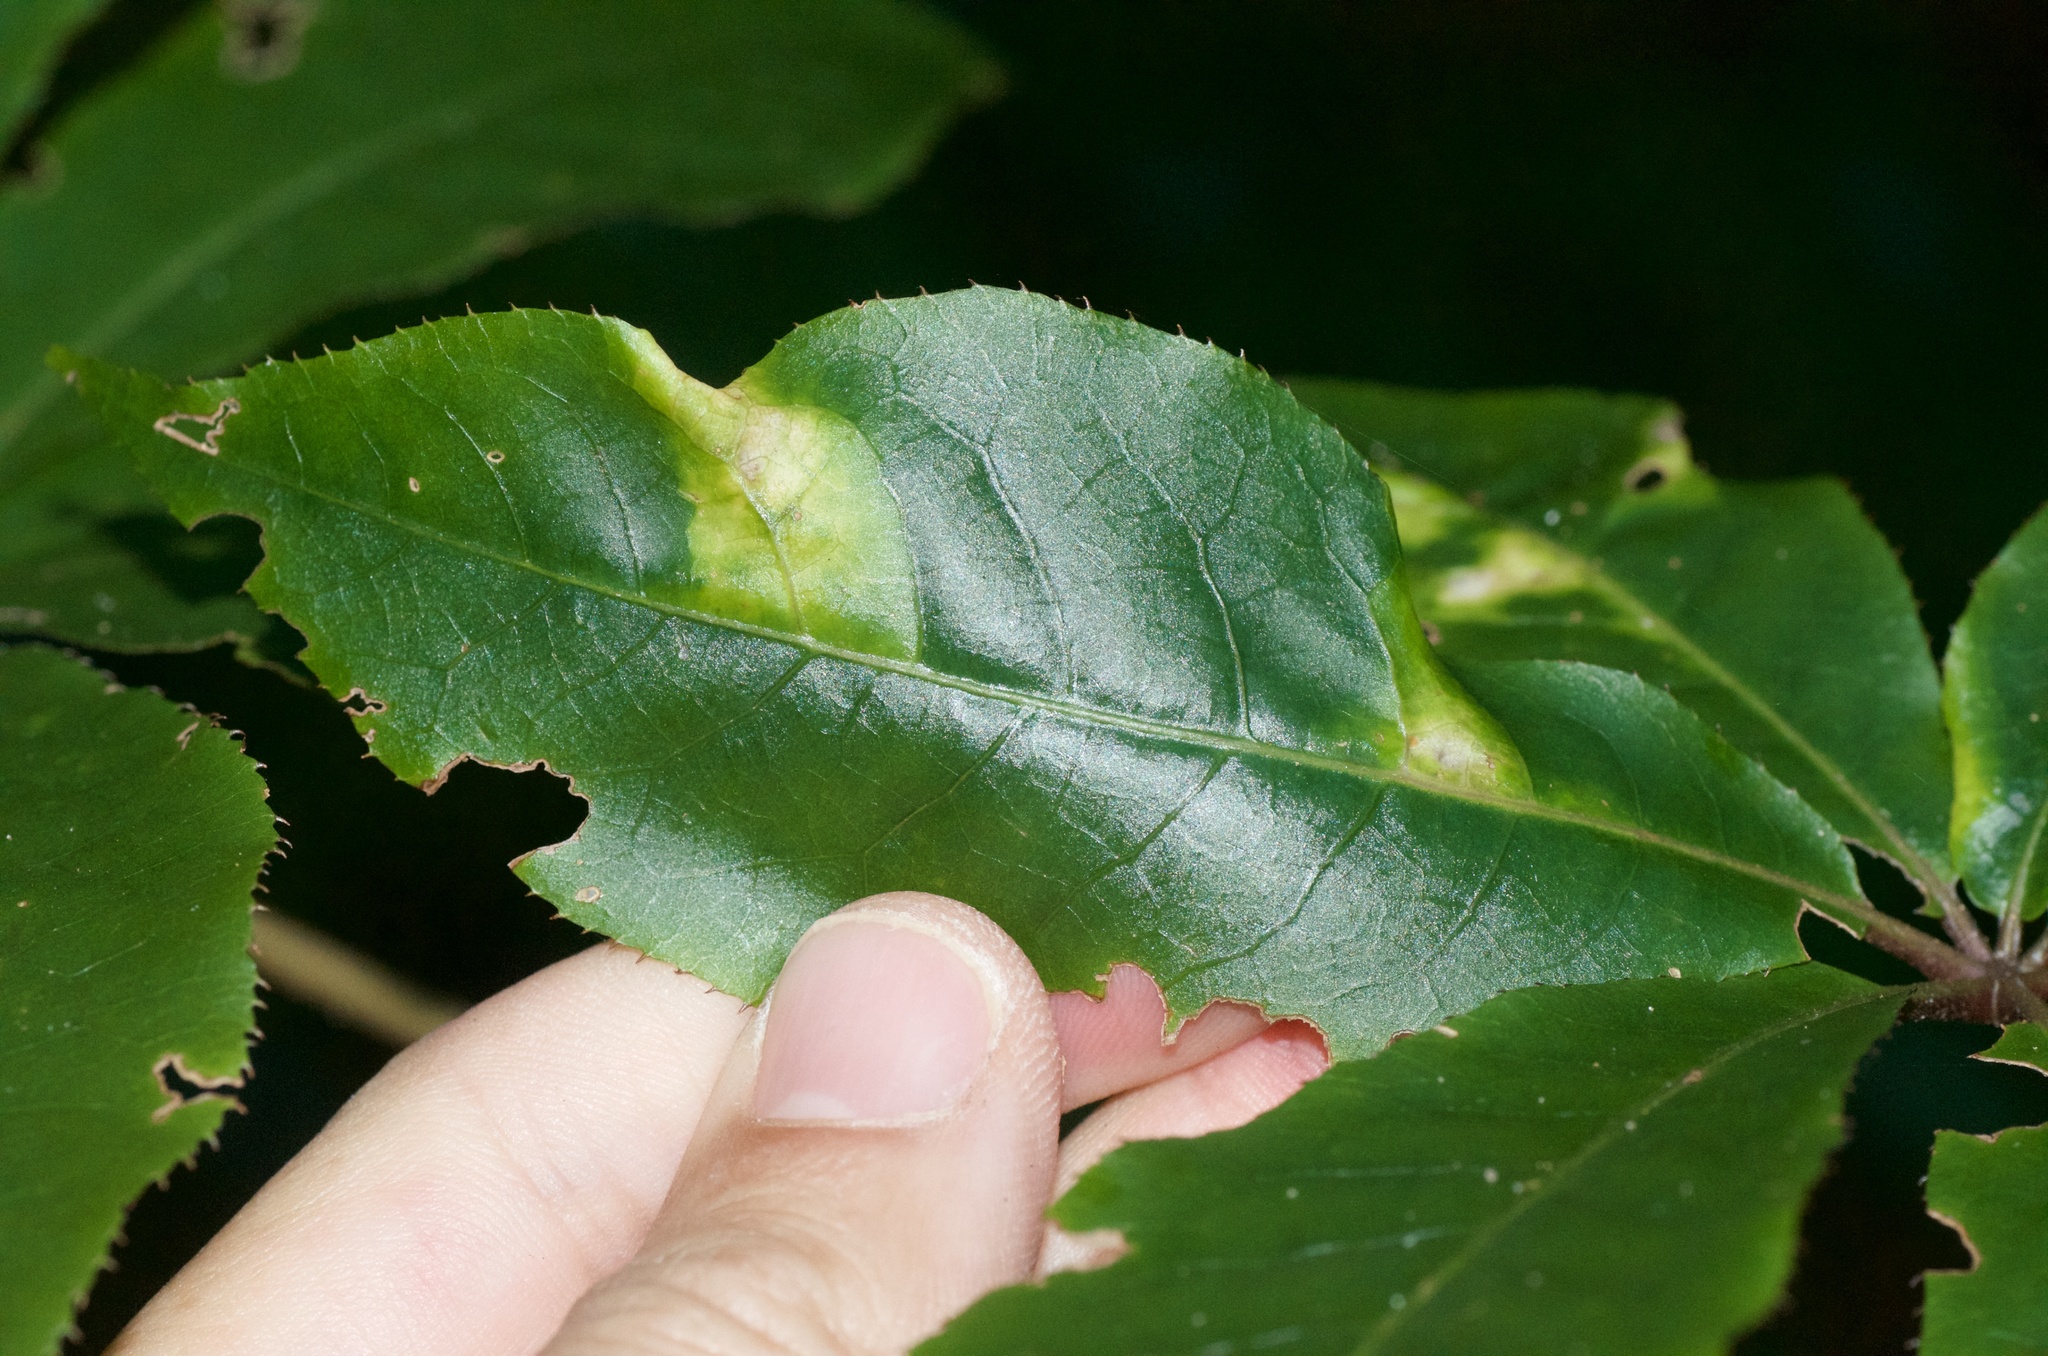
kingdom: Plantae
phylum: Tracheophyta
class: Magnoliopsida
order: Apiales
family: Araliaceae
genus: Schefflera
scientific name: Schefflera digitata
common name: Pate
